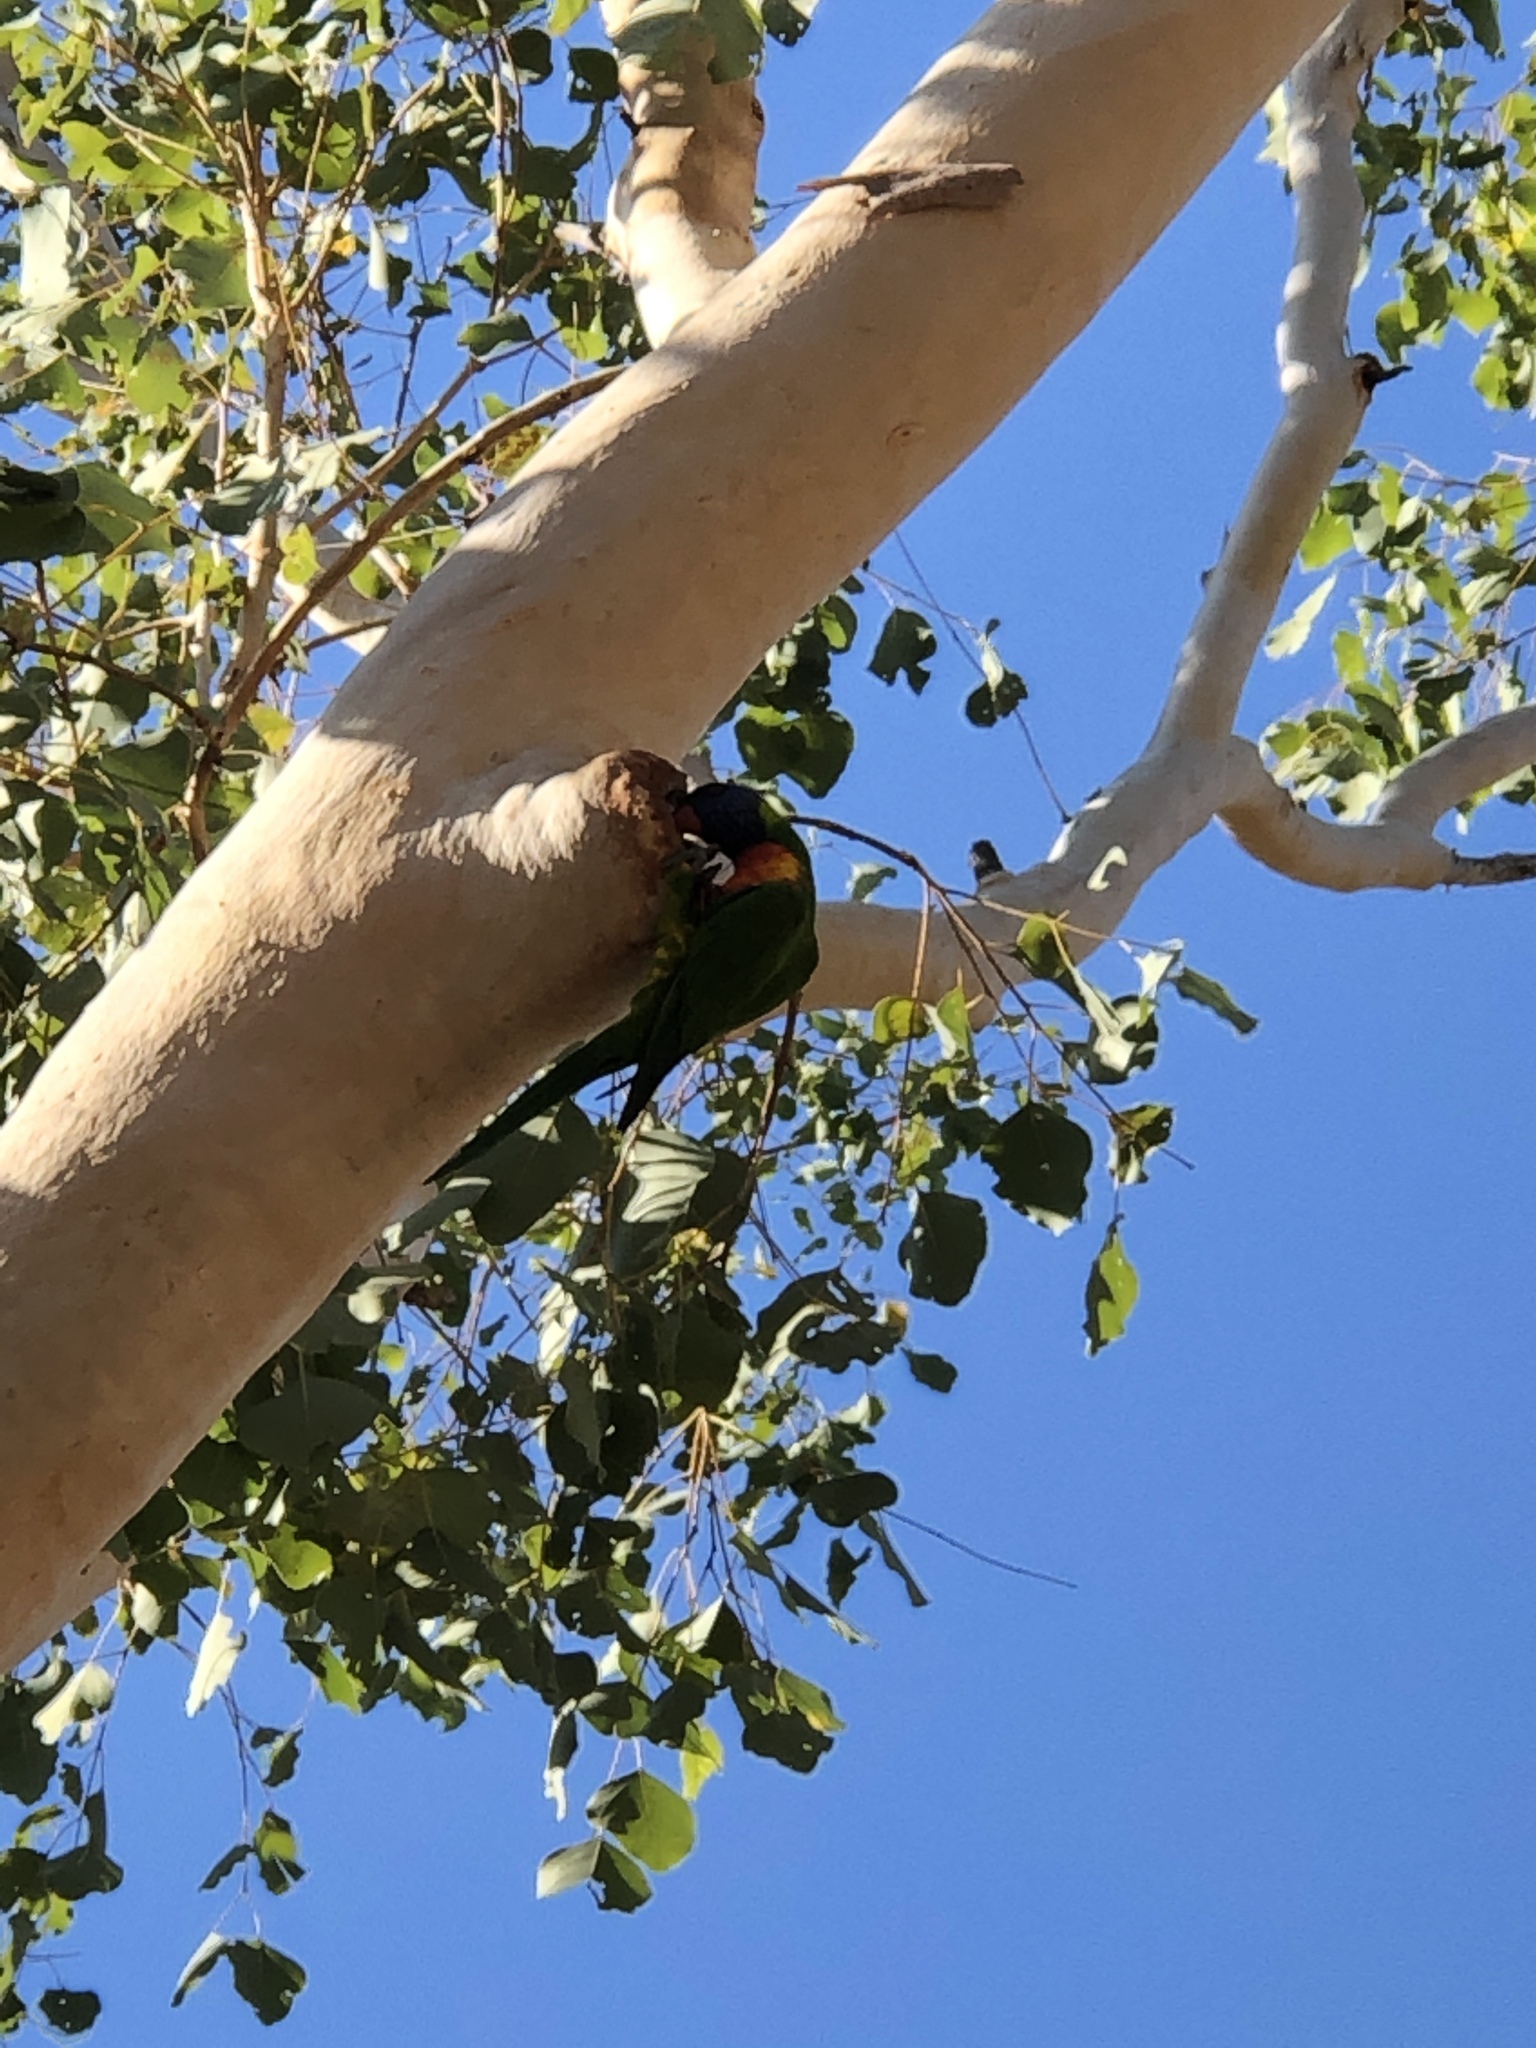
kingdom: Animalia
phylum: Chordata
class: Aves
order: Psittaciformes
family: Psittacidae
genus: Trichoglossus
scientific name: Trichoglossus haematodus
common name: Coconut lorikeet
